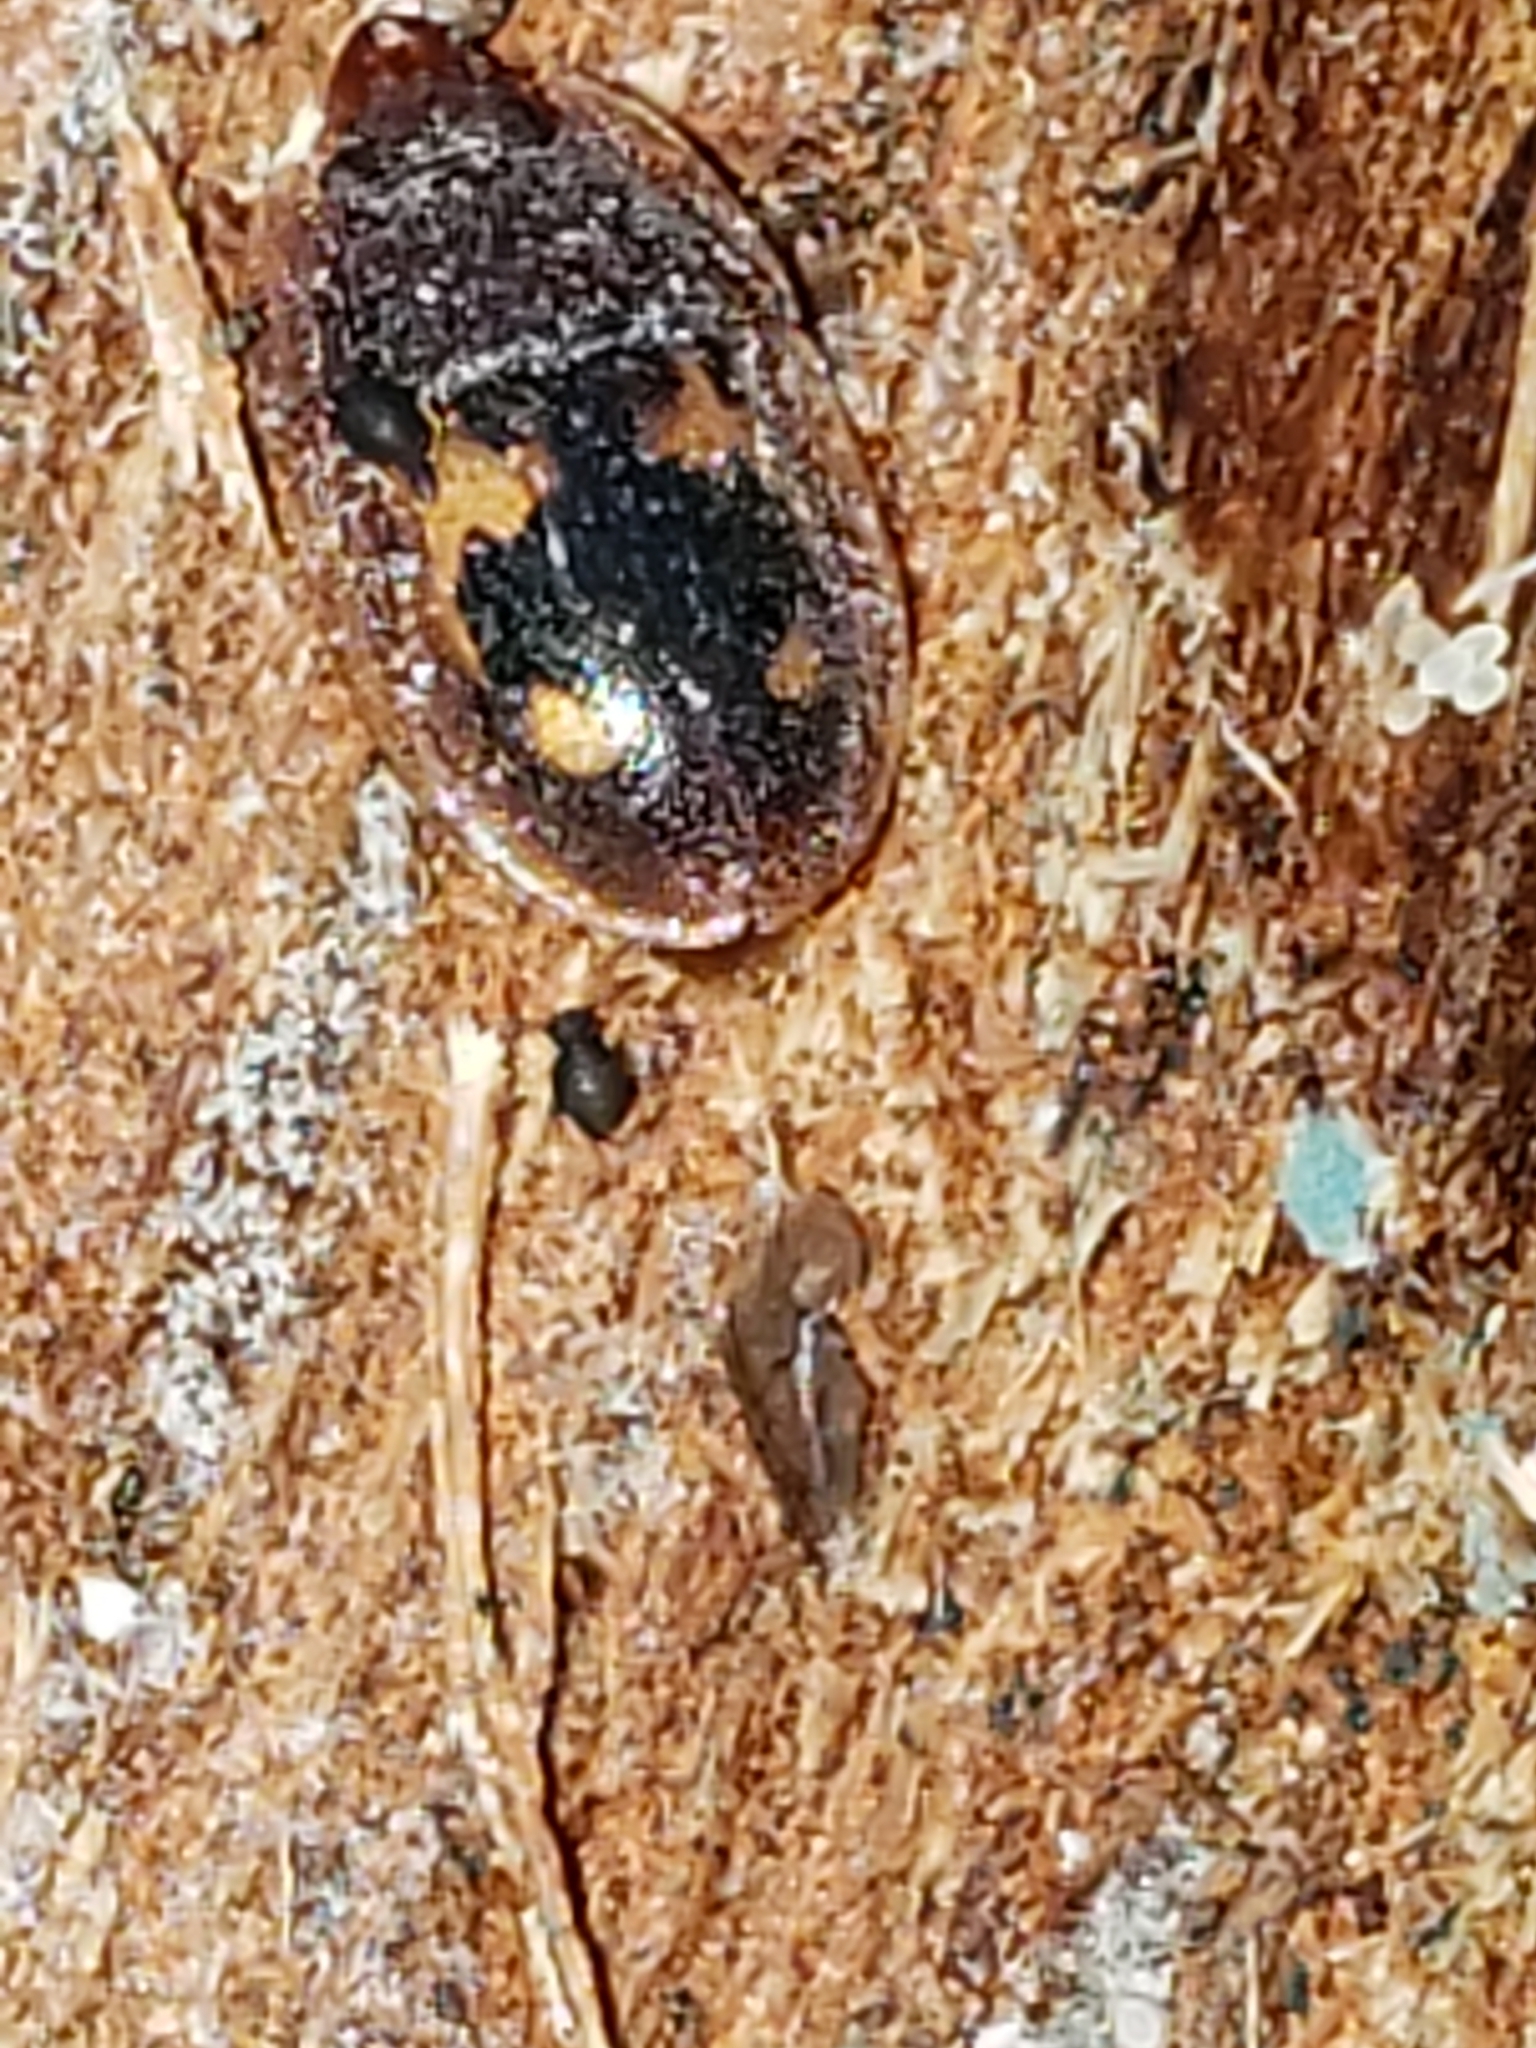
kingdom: Animalia
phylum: Arthropoda
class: Insecta
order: Coleoptera
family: Nitidulidae
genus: Prometopia
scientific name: Prometopia sexmaculata
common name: Six-spotted sap-feeding beetle
